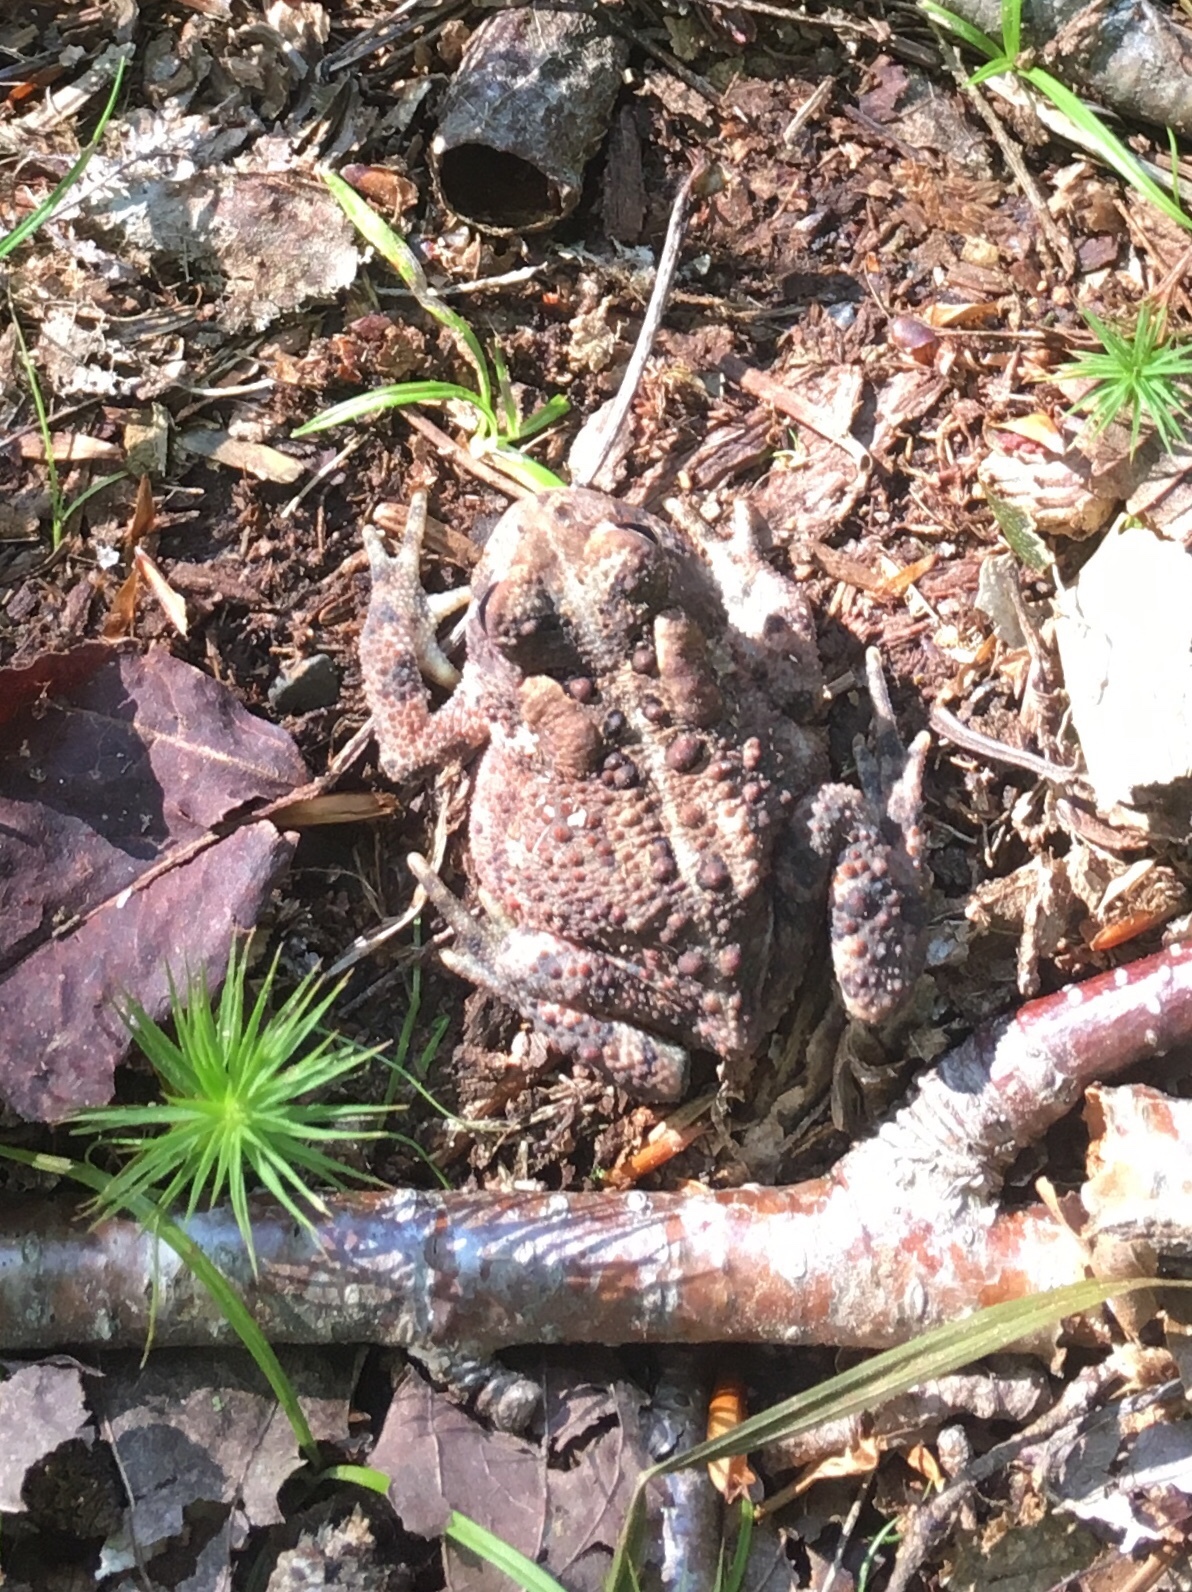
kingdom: Animalia
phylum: Chordata
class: Amphibia
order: Anura
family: Bufonidae
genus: Anaxyrus
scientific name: Anaxyrus americanus
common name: American toad
